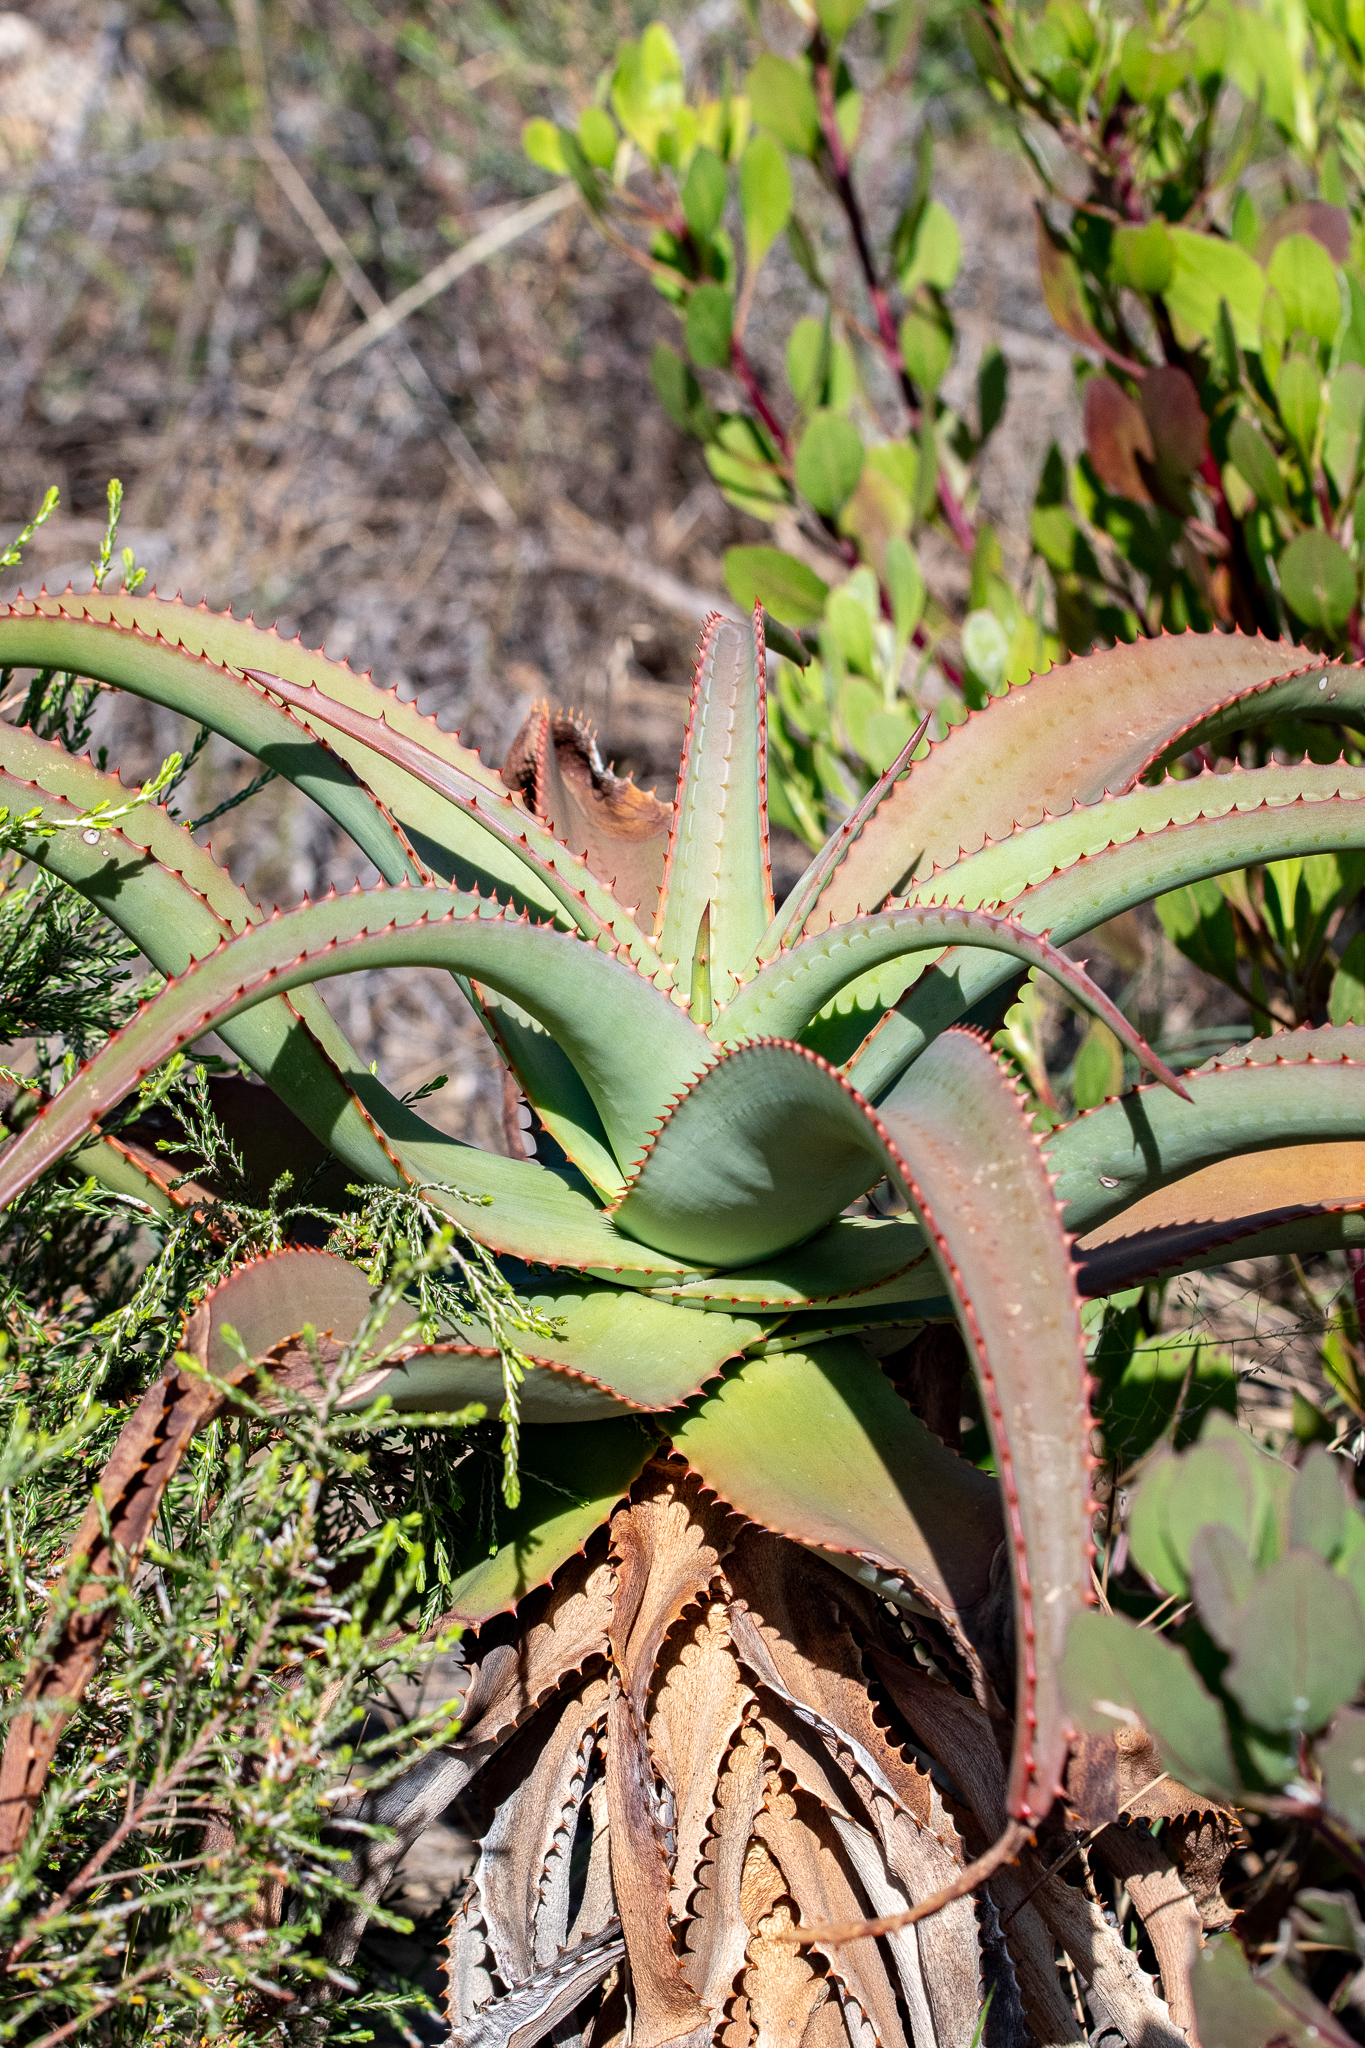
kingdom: Plantae
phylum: Tracheophyta
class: Liliopsida
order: Asparagales
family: Asphodelaceae
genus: Aloe
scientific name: Aloe
